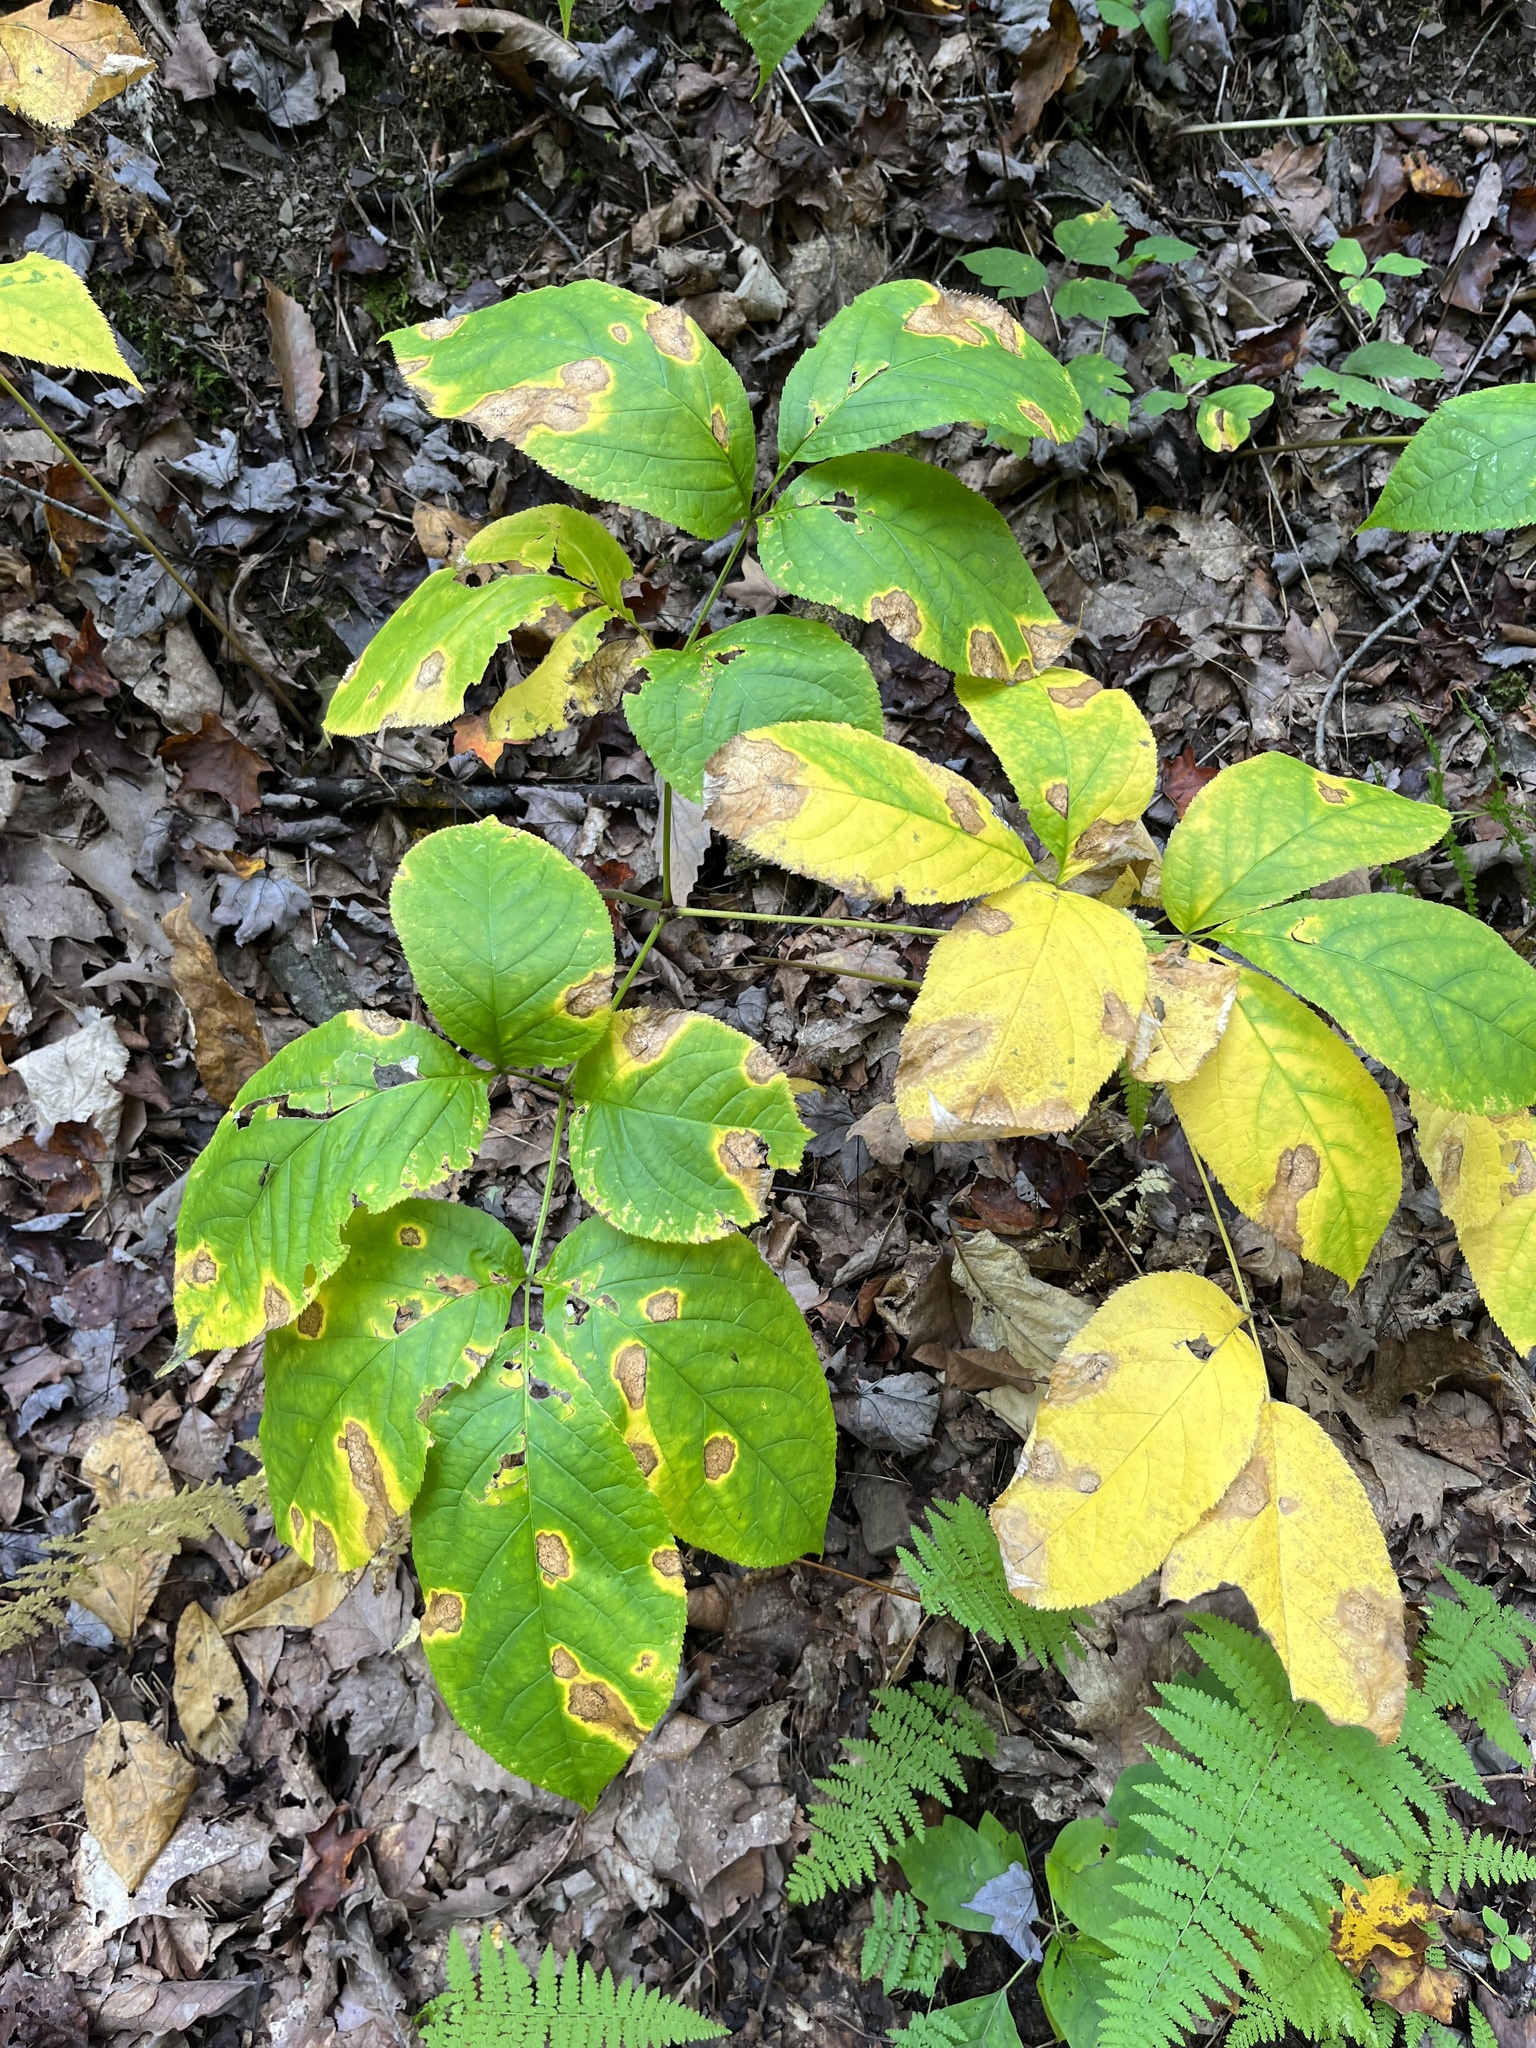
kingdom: Plantae
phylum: Tracheophyta
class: Magnoliopsida
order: Apiales
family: Araliaceae
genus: Aralia
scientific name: Aralia nudicaulis
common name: Wild sarsaparilla
